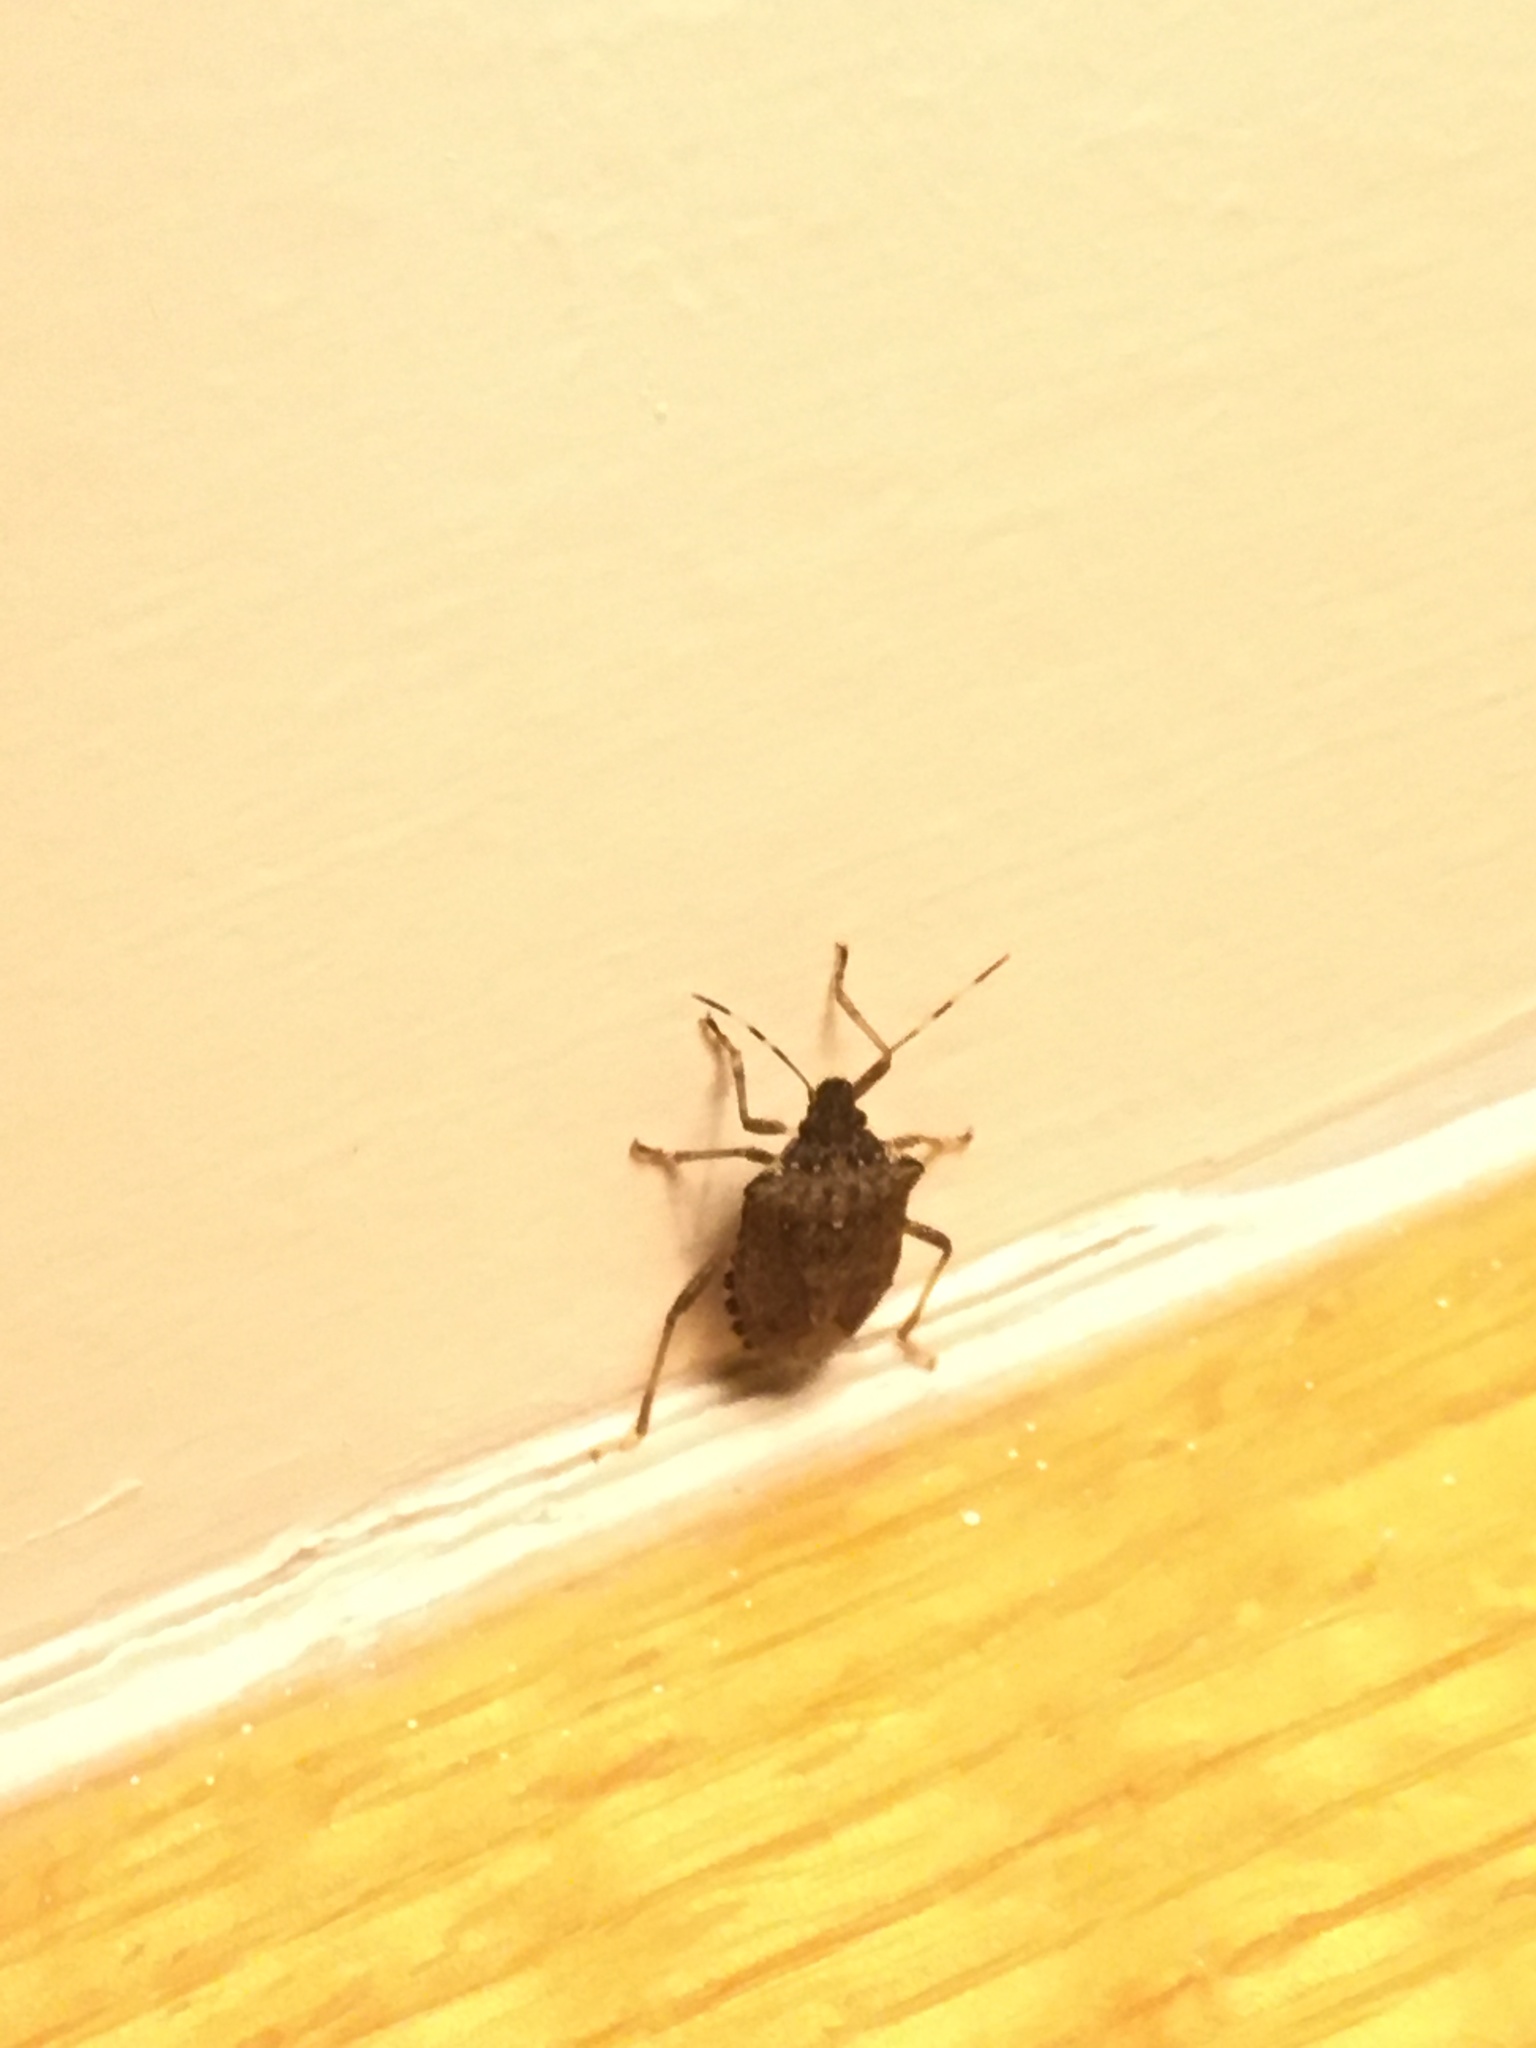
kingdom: Animalia
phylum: Arthropoda
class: Insecta
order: Hemiptera
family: Pentatomidae
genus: Halyomorpha
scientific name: Halyomorpha halys
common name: Brown marmorated stink bug
